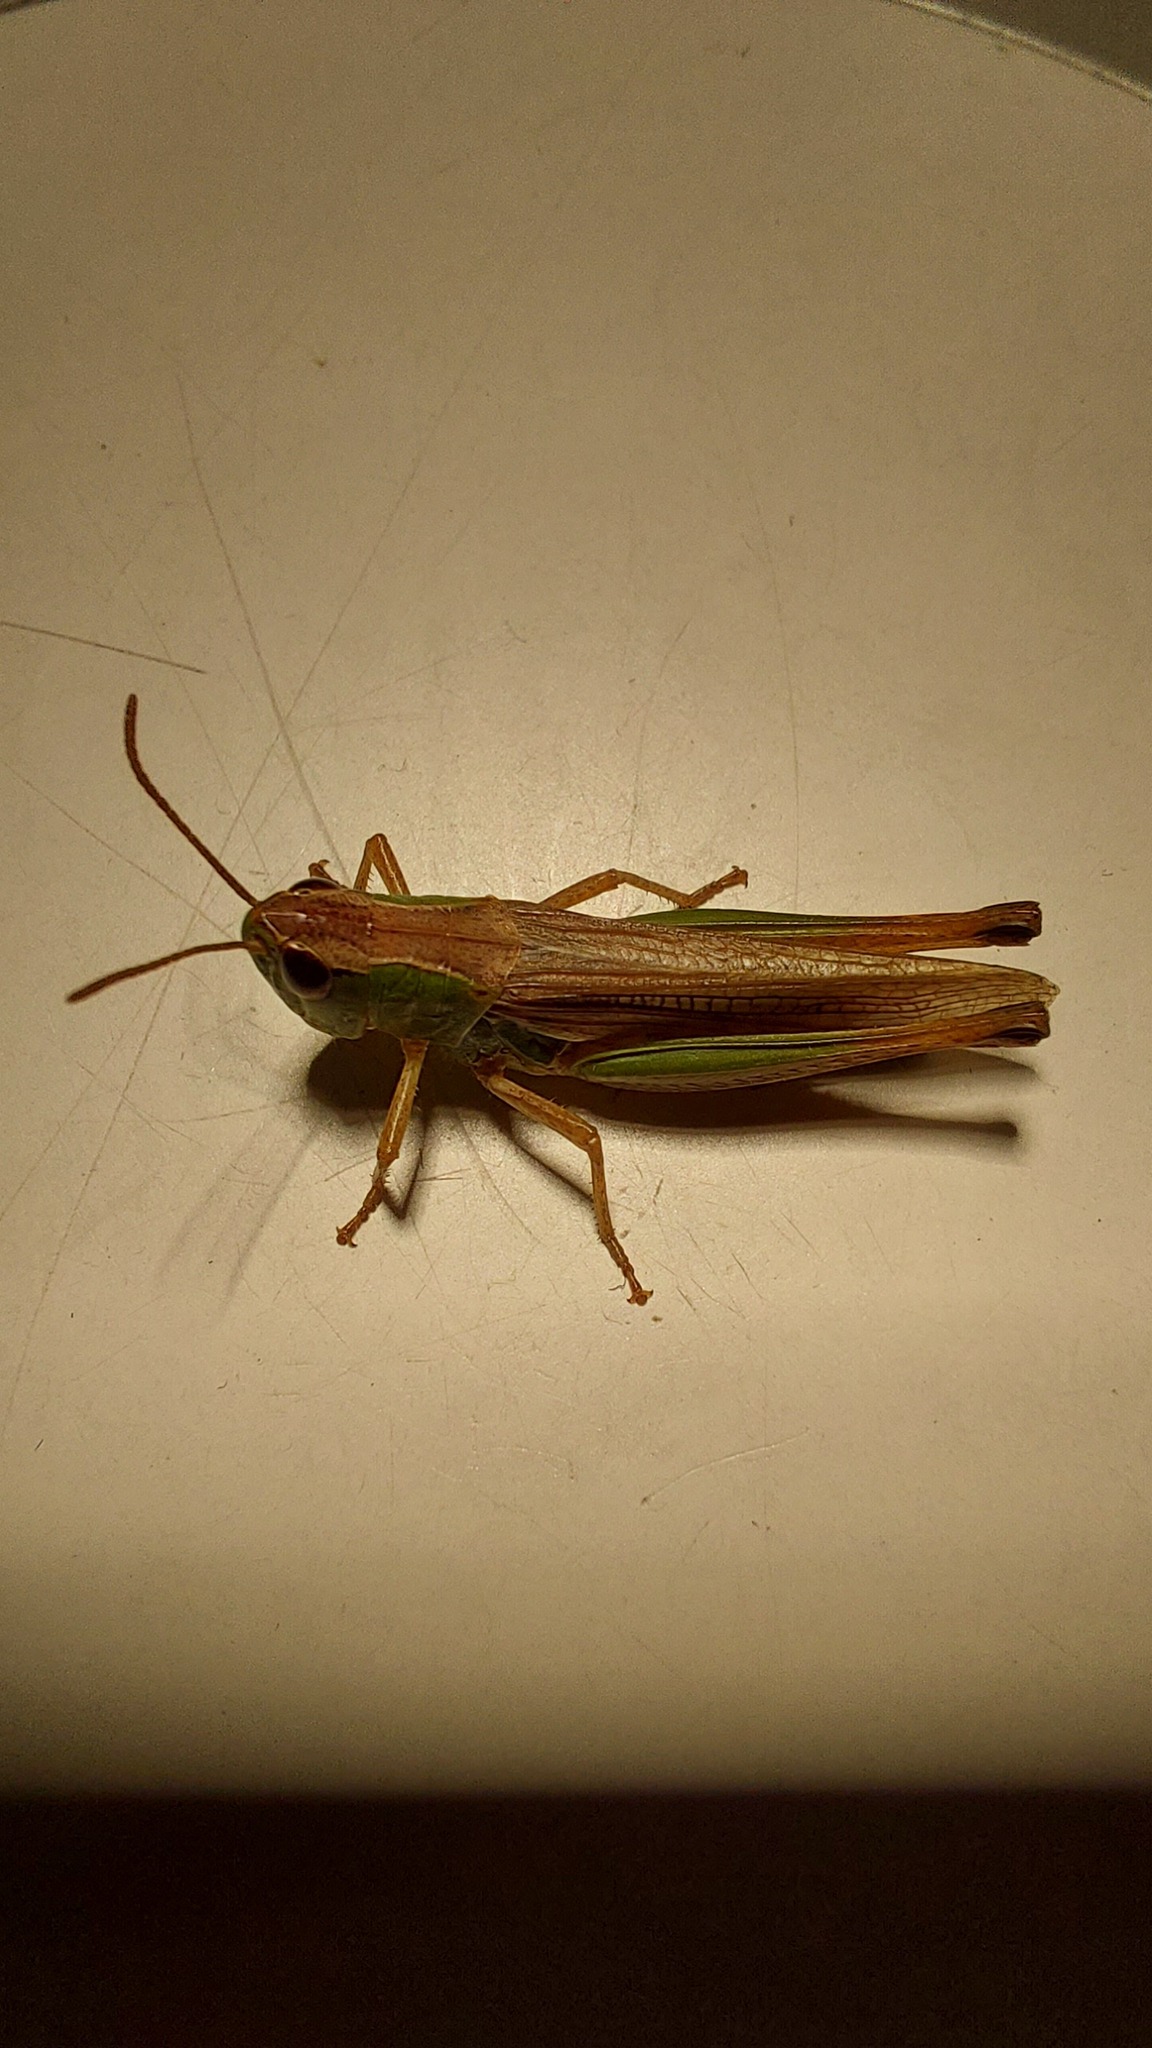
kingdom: Animalia
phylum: Arthropoda
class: Insecta
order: Orthoptera
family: Acrididae
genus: Pseudochorthippus
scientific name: Pseudochorthippus parallelus
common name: Meadow grasshopper
